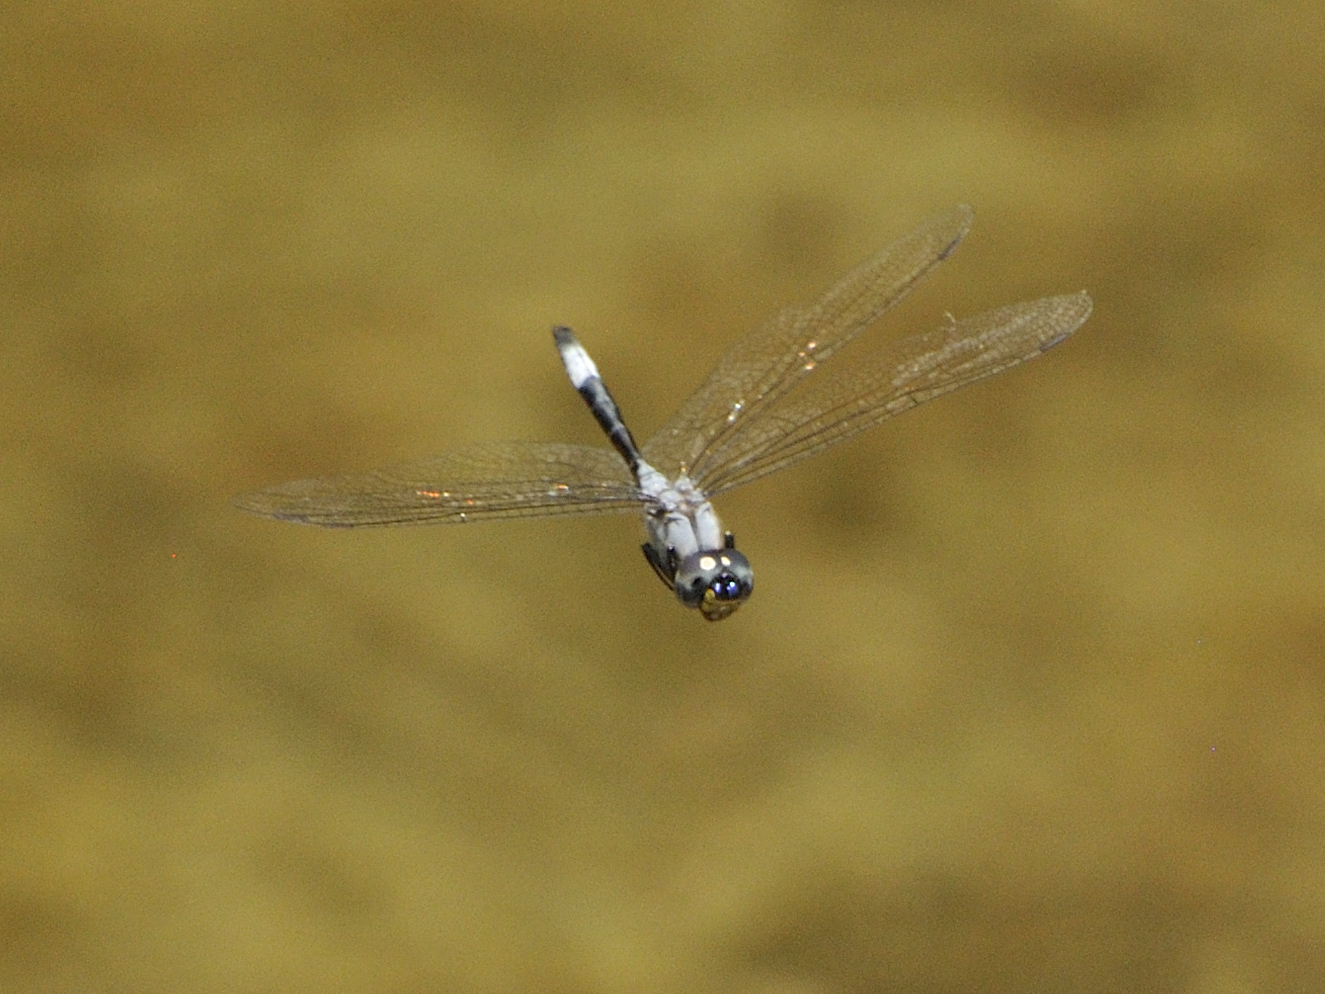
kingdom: Animalia
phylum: Arthropoda
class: Insecta
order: Odonata
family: Libellulidae
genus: Zygonyx
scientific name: Zygonyx elisabethae
